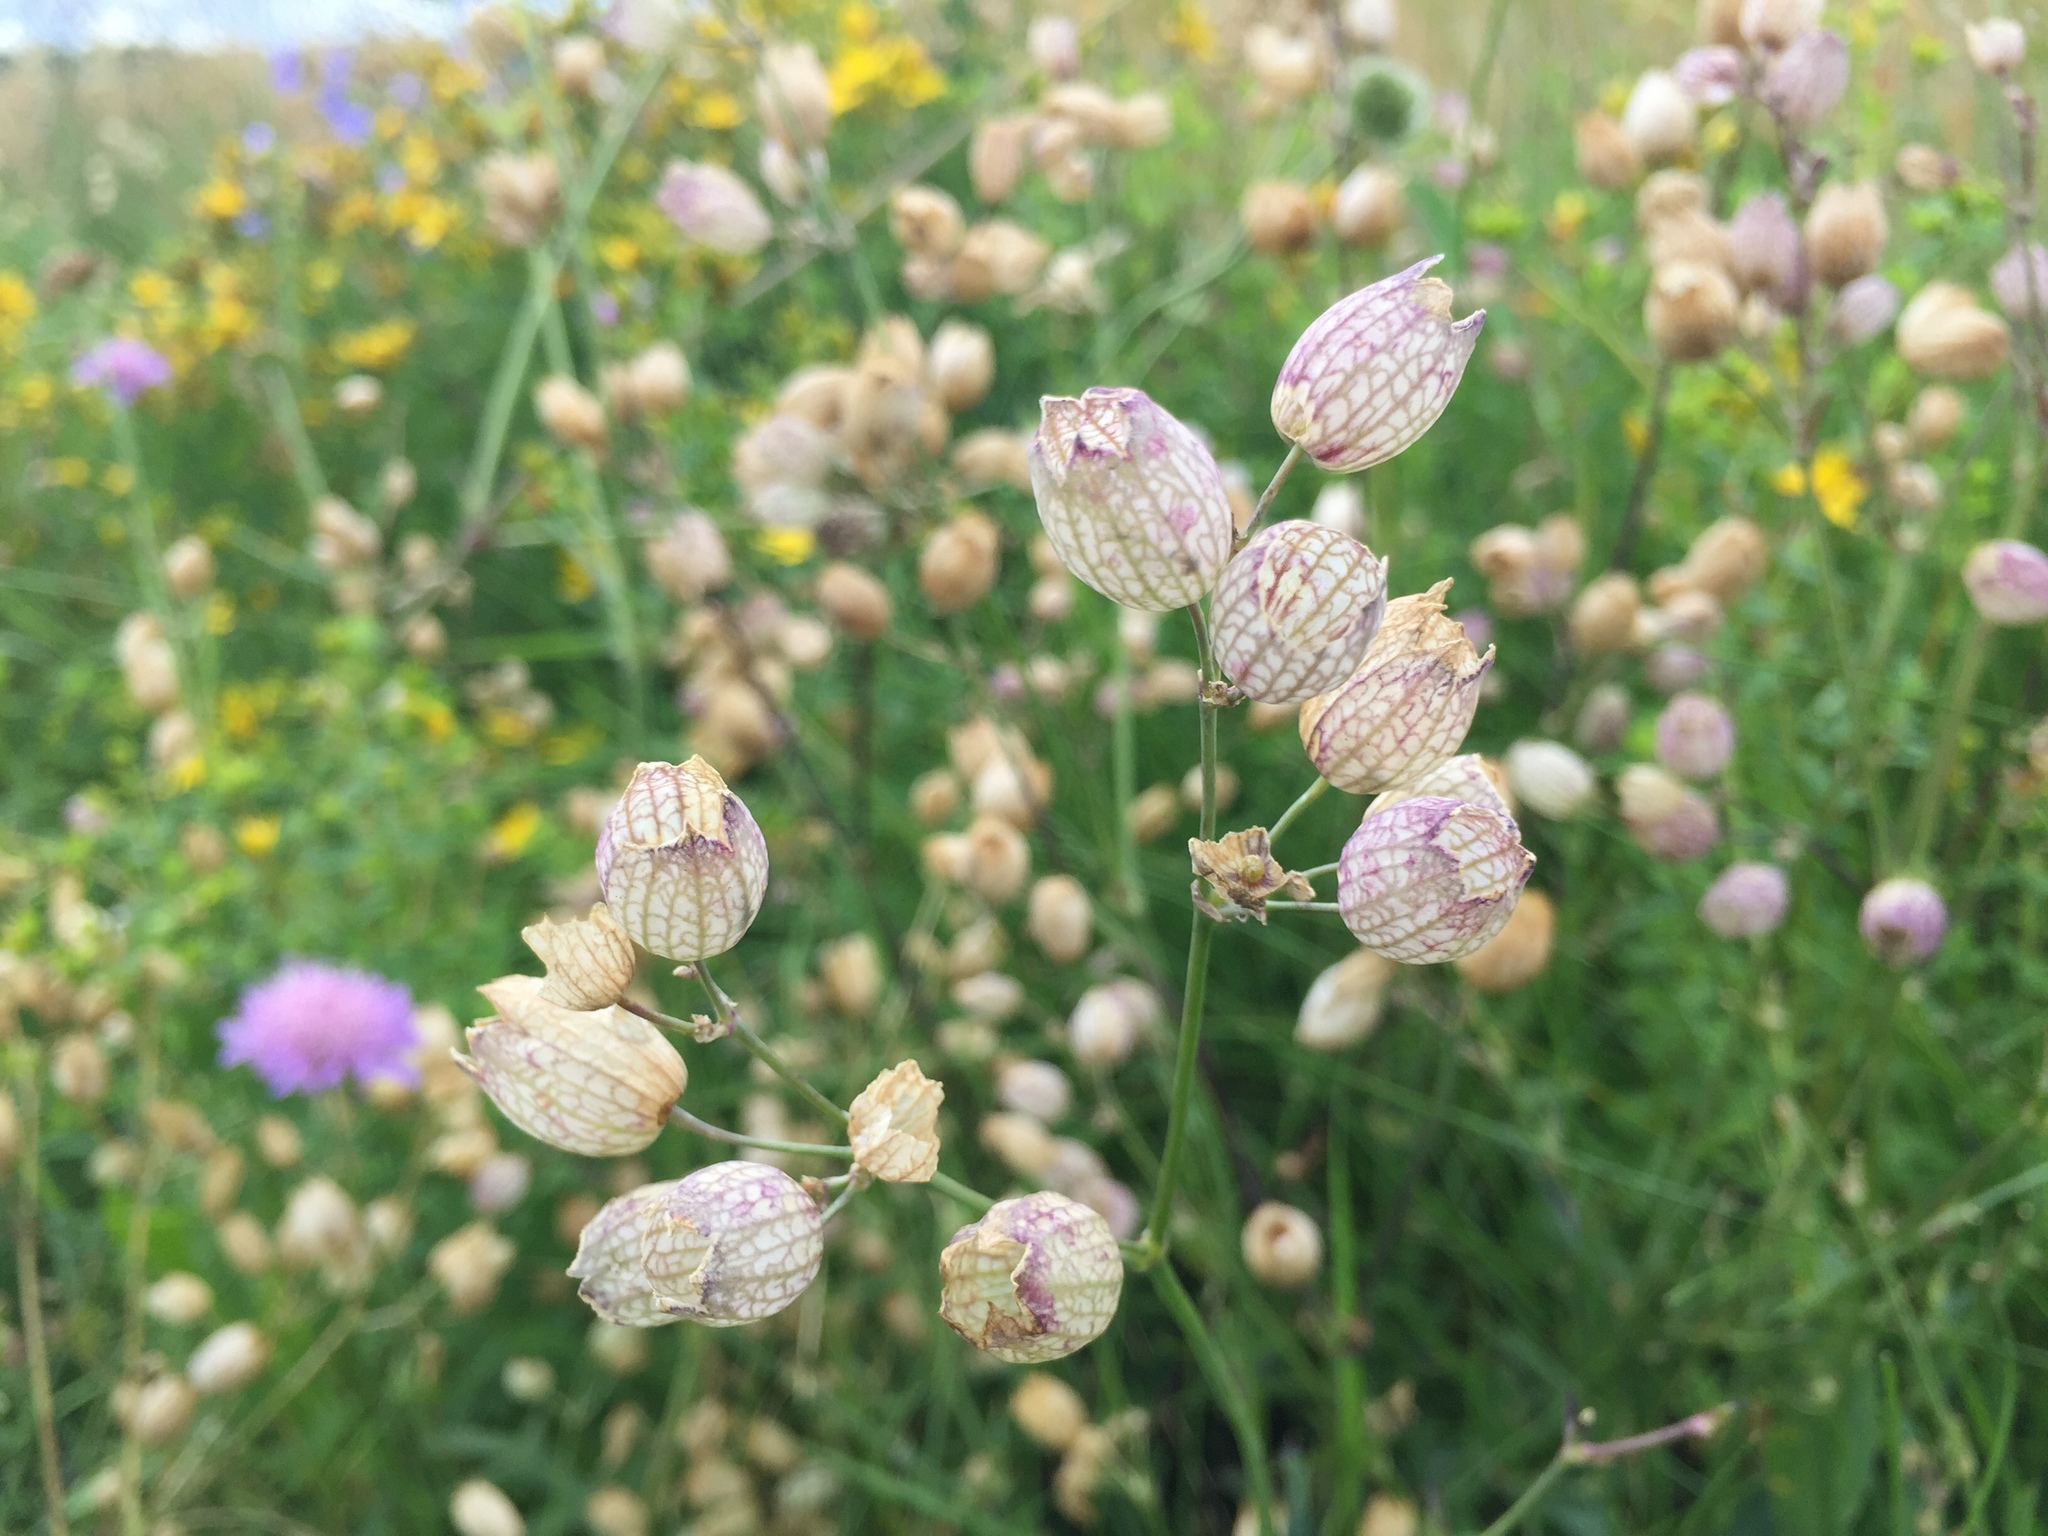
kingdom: Plantae
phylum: Tracheophyta
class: Magnoliopsida
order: Caryophyllales
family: Caryophyllaceae
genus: Silene
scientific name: Silene vulgaris
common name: Bladder campion
